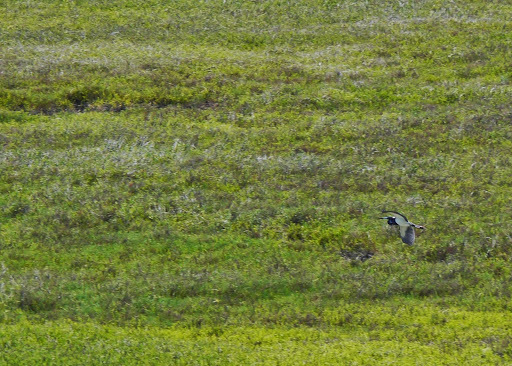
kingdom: Animalia
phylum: Chordata
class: Aves
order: Pelecaniformes
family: Ardeidae
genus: Egretta
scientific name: Egretta tricolor
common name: Tricolored heron
